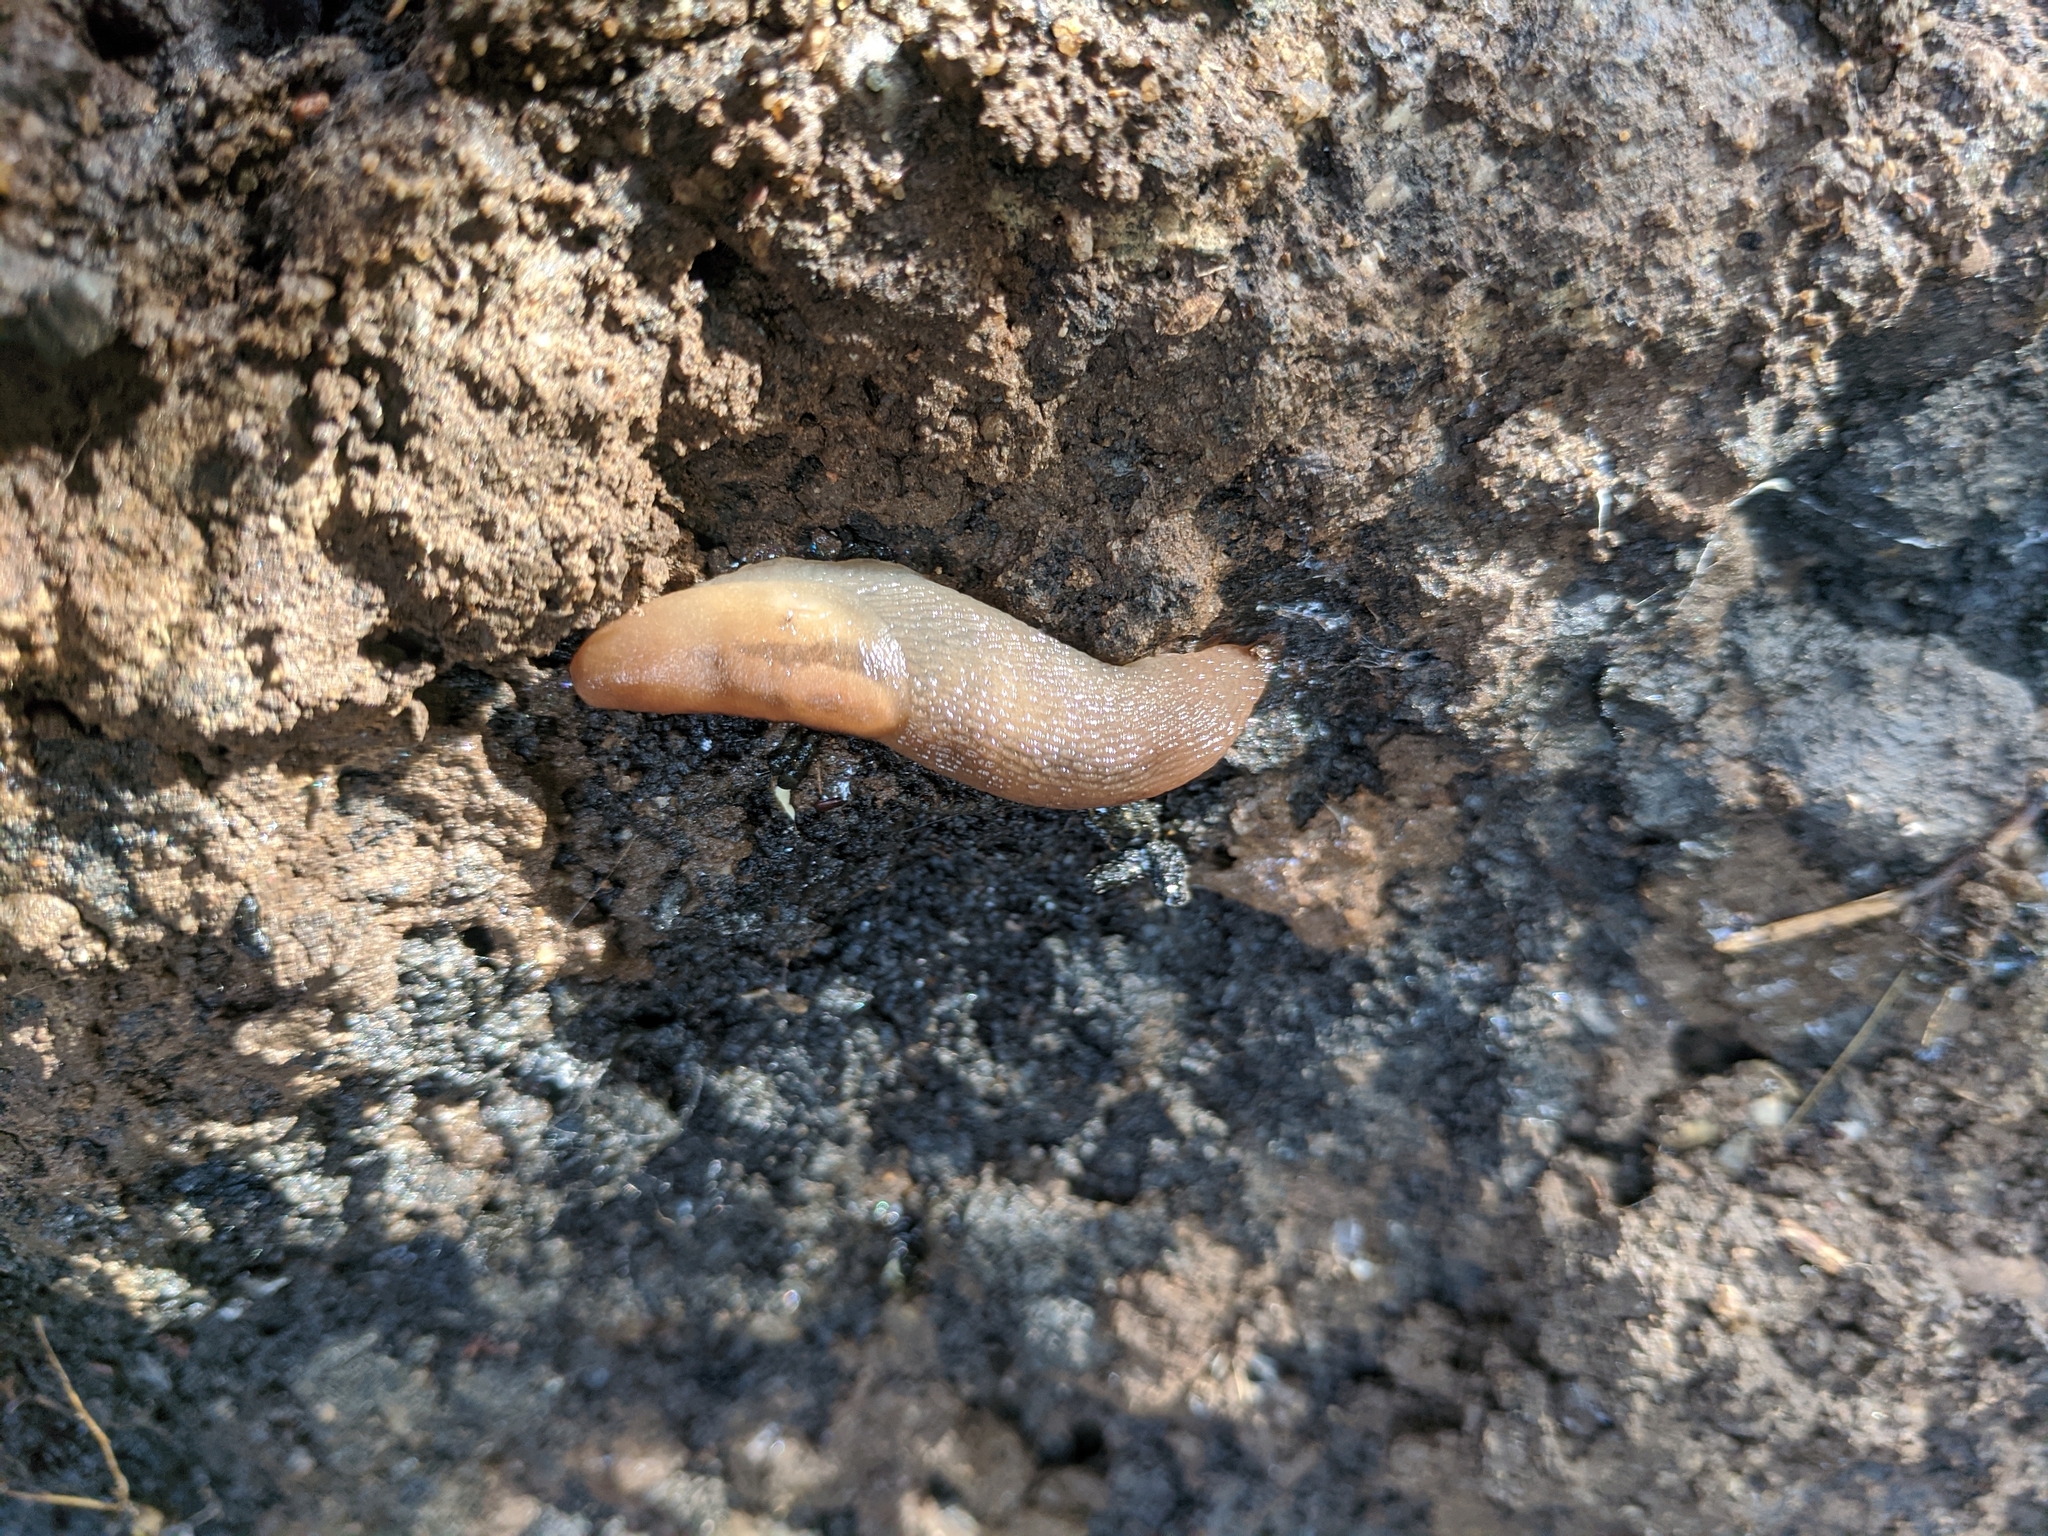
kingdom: Animalia
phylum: Mollusca
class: Gastropoda
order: Stylommatophora
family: Limacidae
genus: Ambigolimax
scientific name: Ambigolimax
